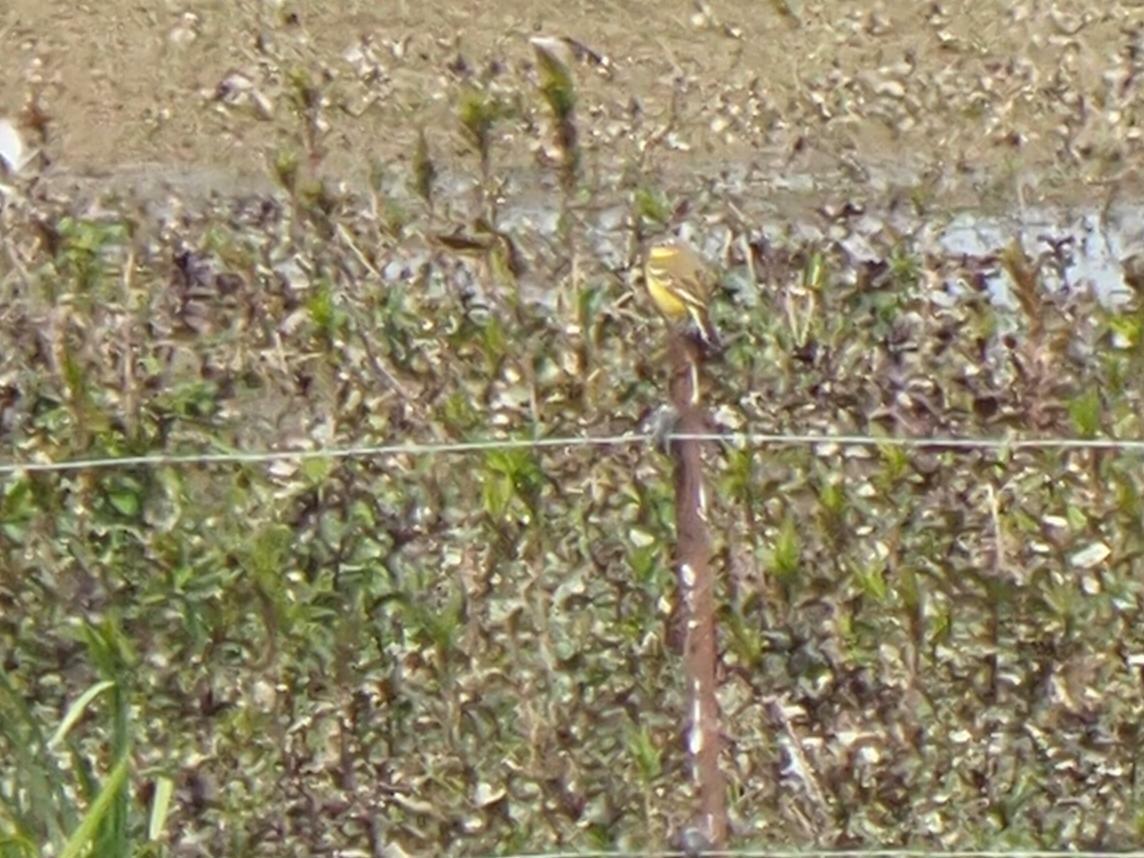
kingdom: Animalia
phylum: Chordata
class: Aves
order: Passeriformes
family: Motacillidae
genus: Motacilla
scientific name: Motacilla flava
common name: Western yellow wagtail
